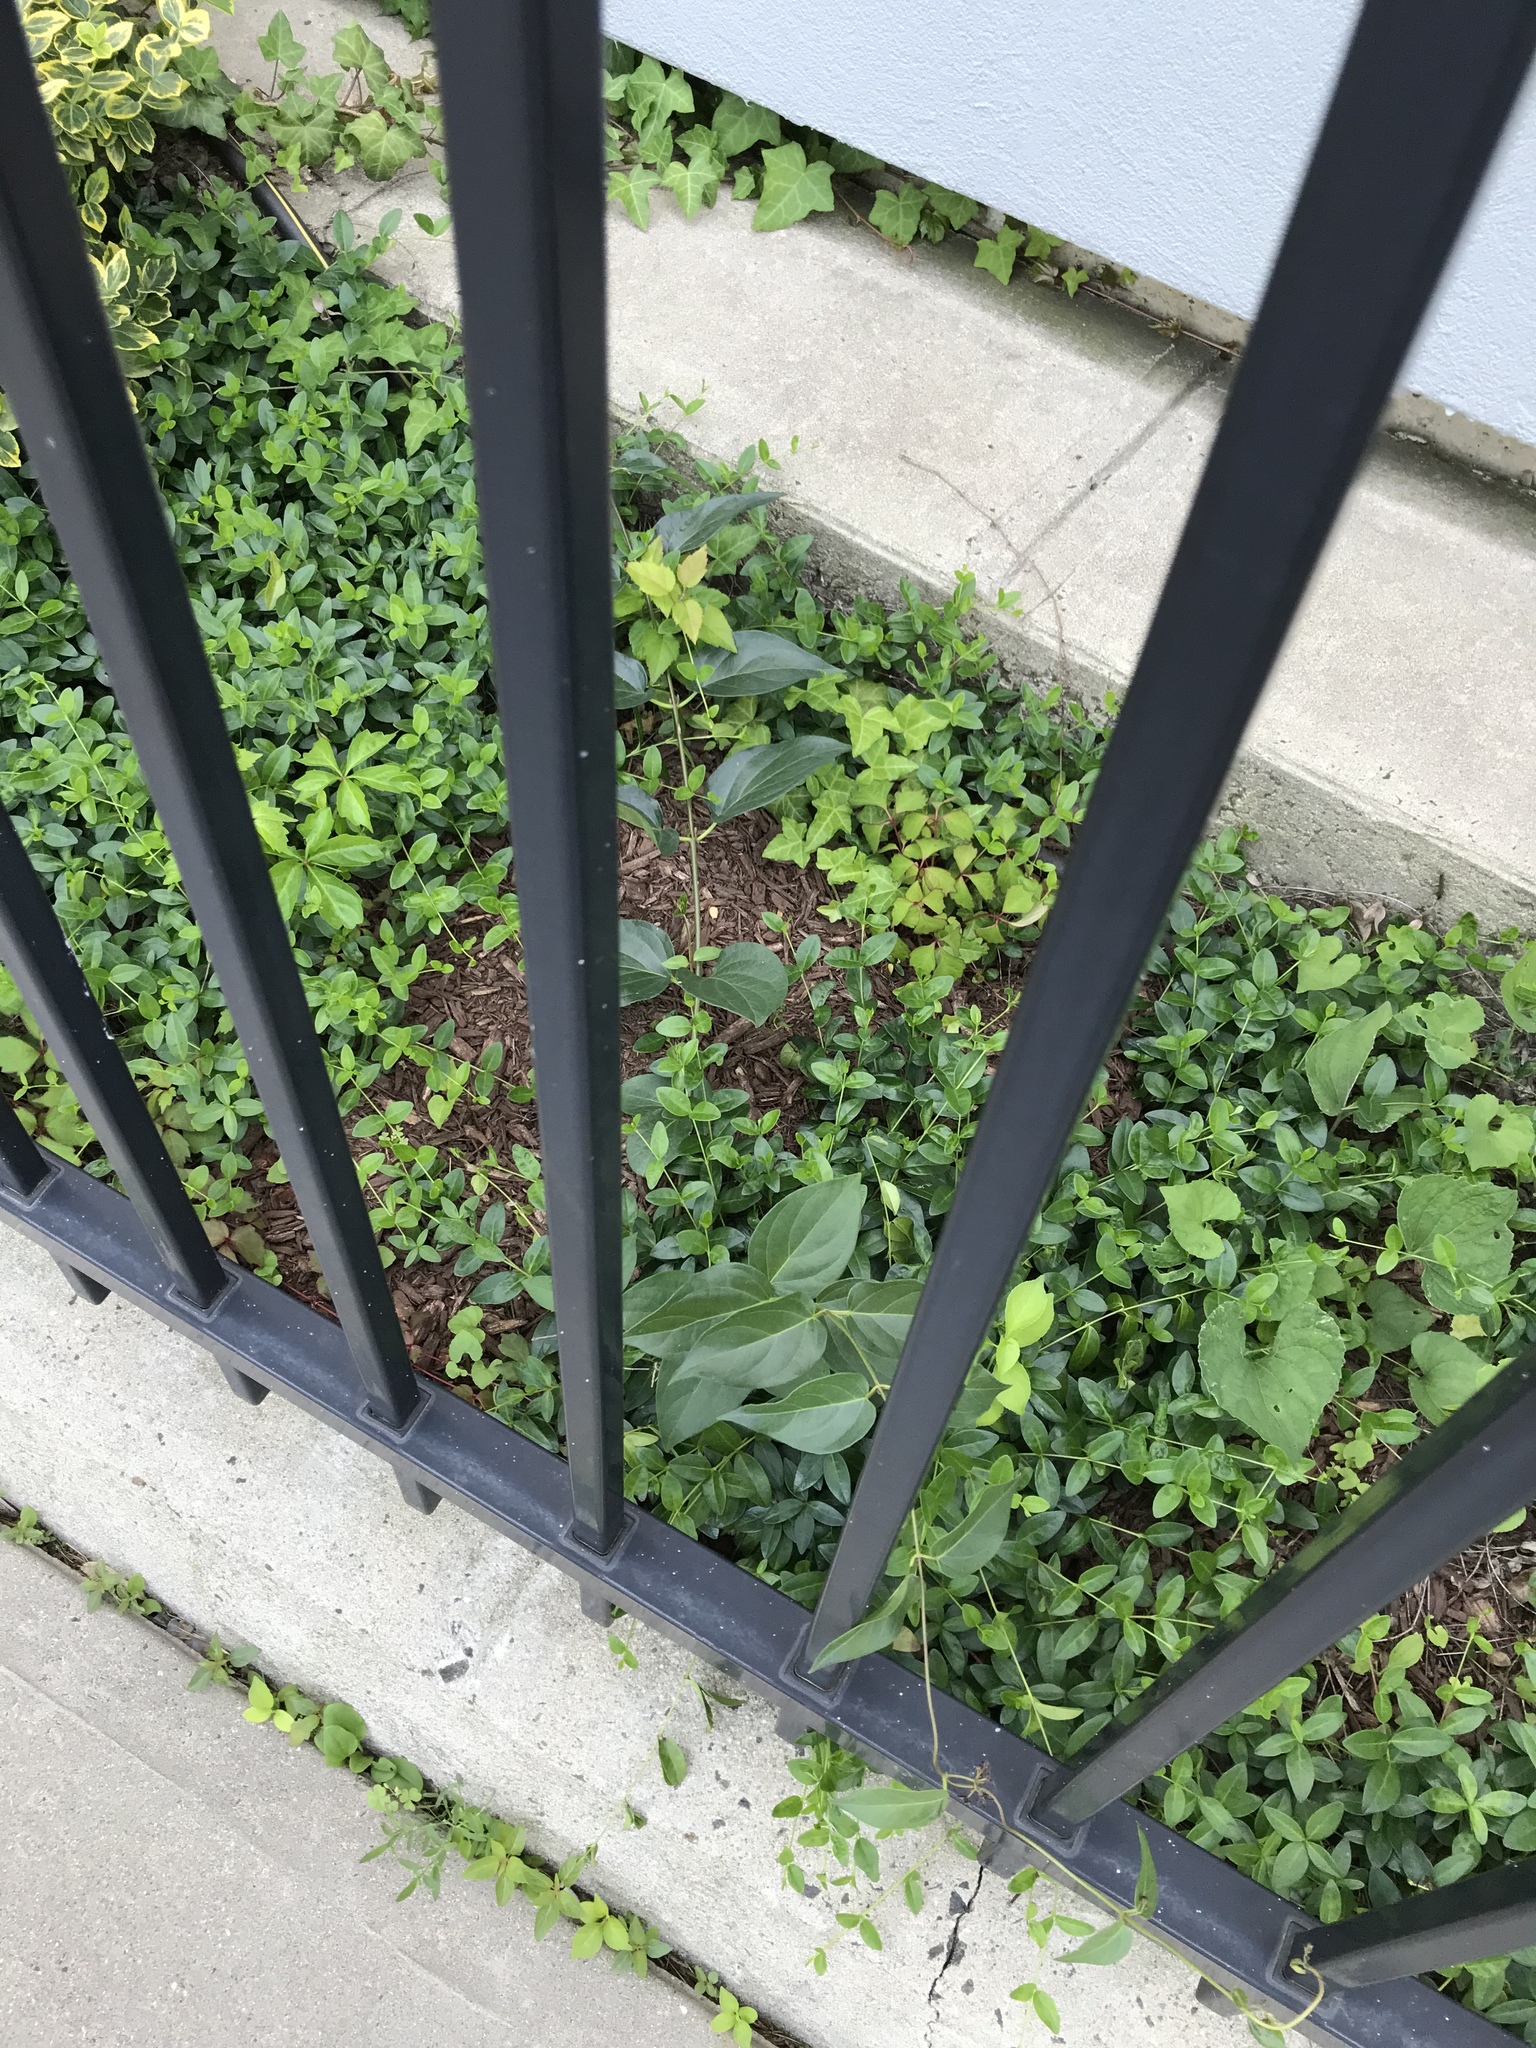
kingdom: Plantae
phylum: Tracheophyta
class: Magnoliopsida
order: Gentianales
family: Apocynaceae
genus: Vincetoxicum
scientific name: Vincetoxicum nigrum
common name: Black swallow-wort
